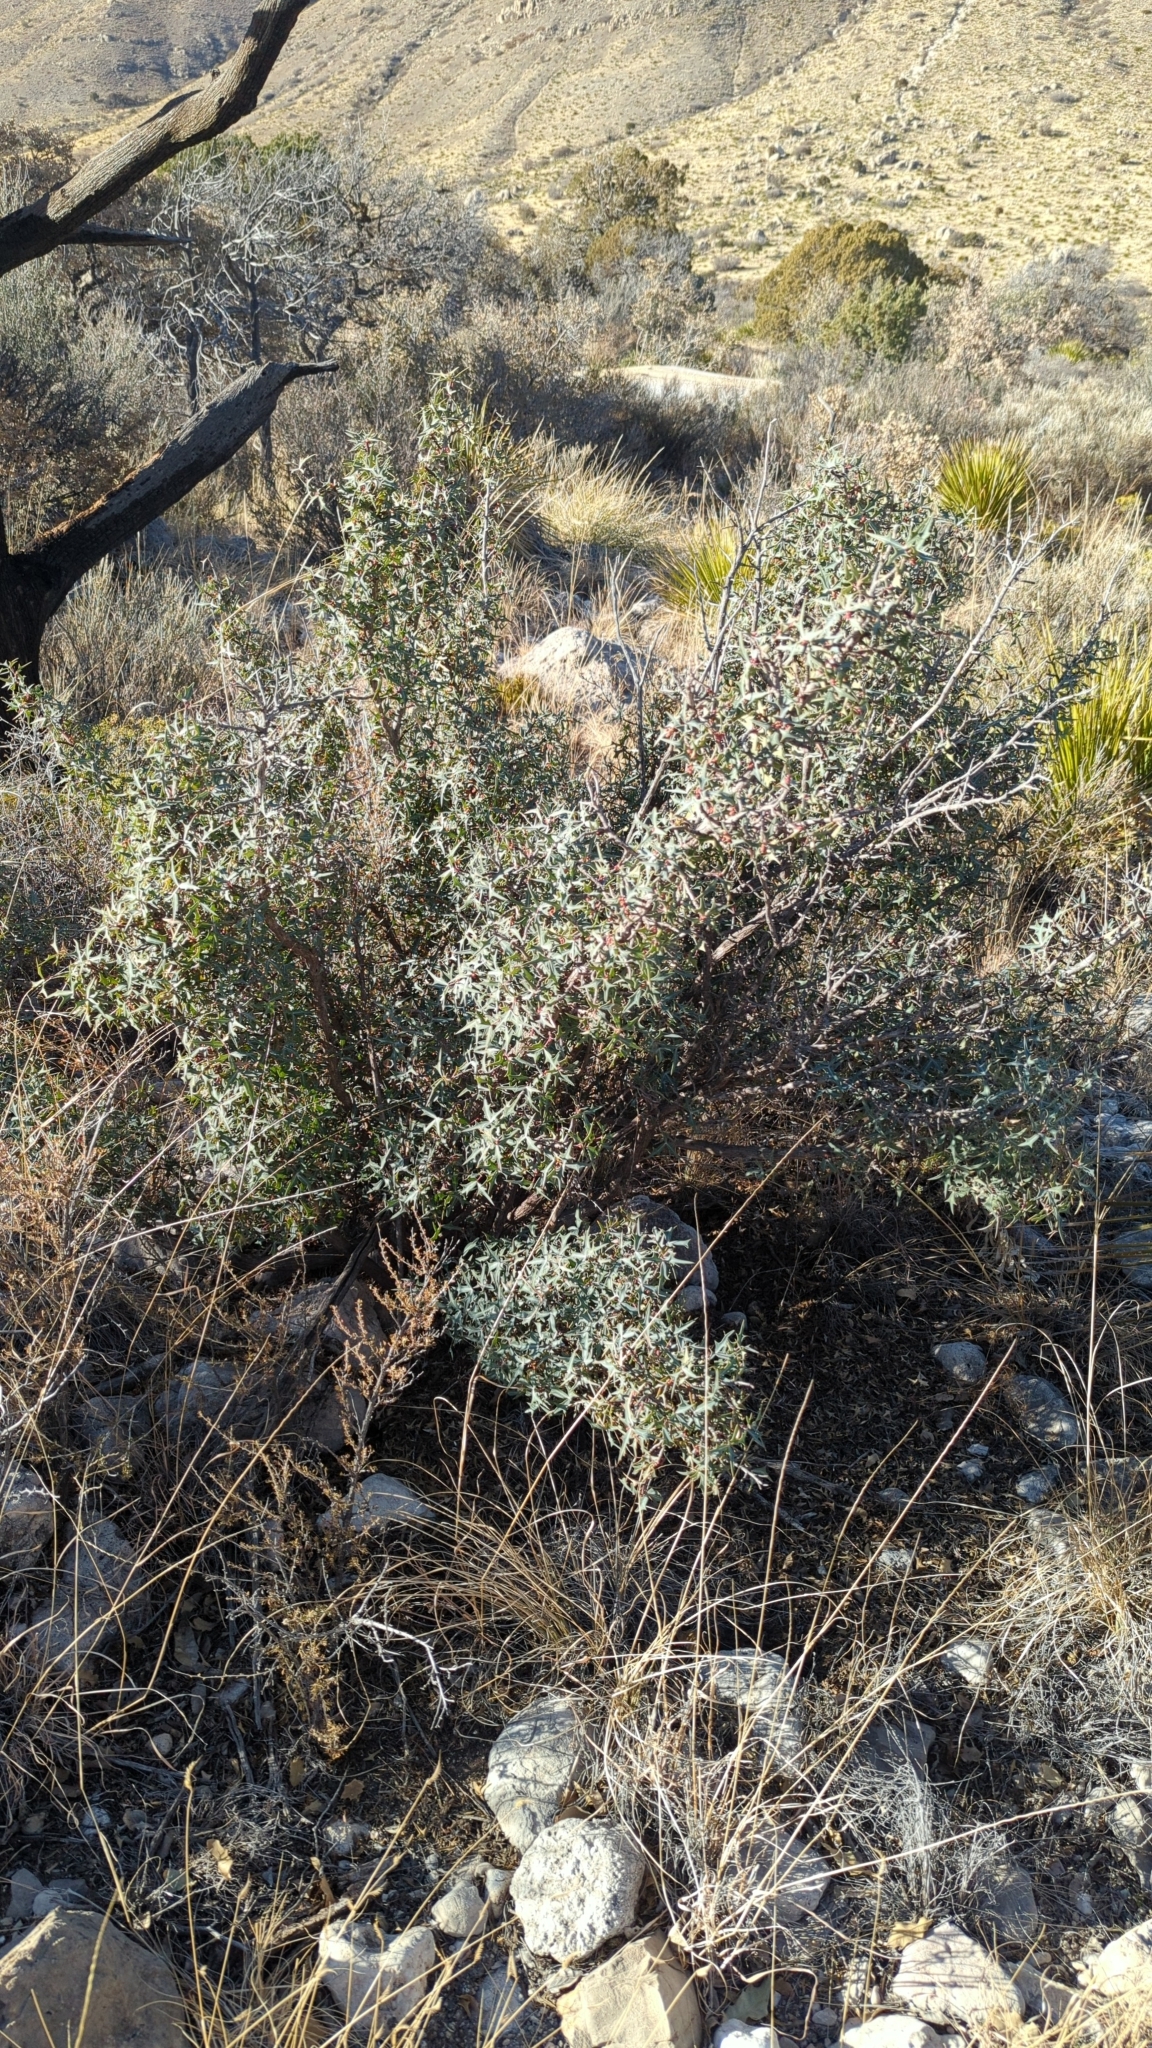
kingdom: Plantae
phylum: Tracheophyta
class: Magnoliopsida
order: Ranunculales
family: Berberidaceae
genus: Alloberberis
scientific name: Alloberberis trifoliolata
